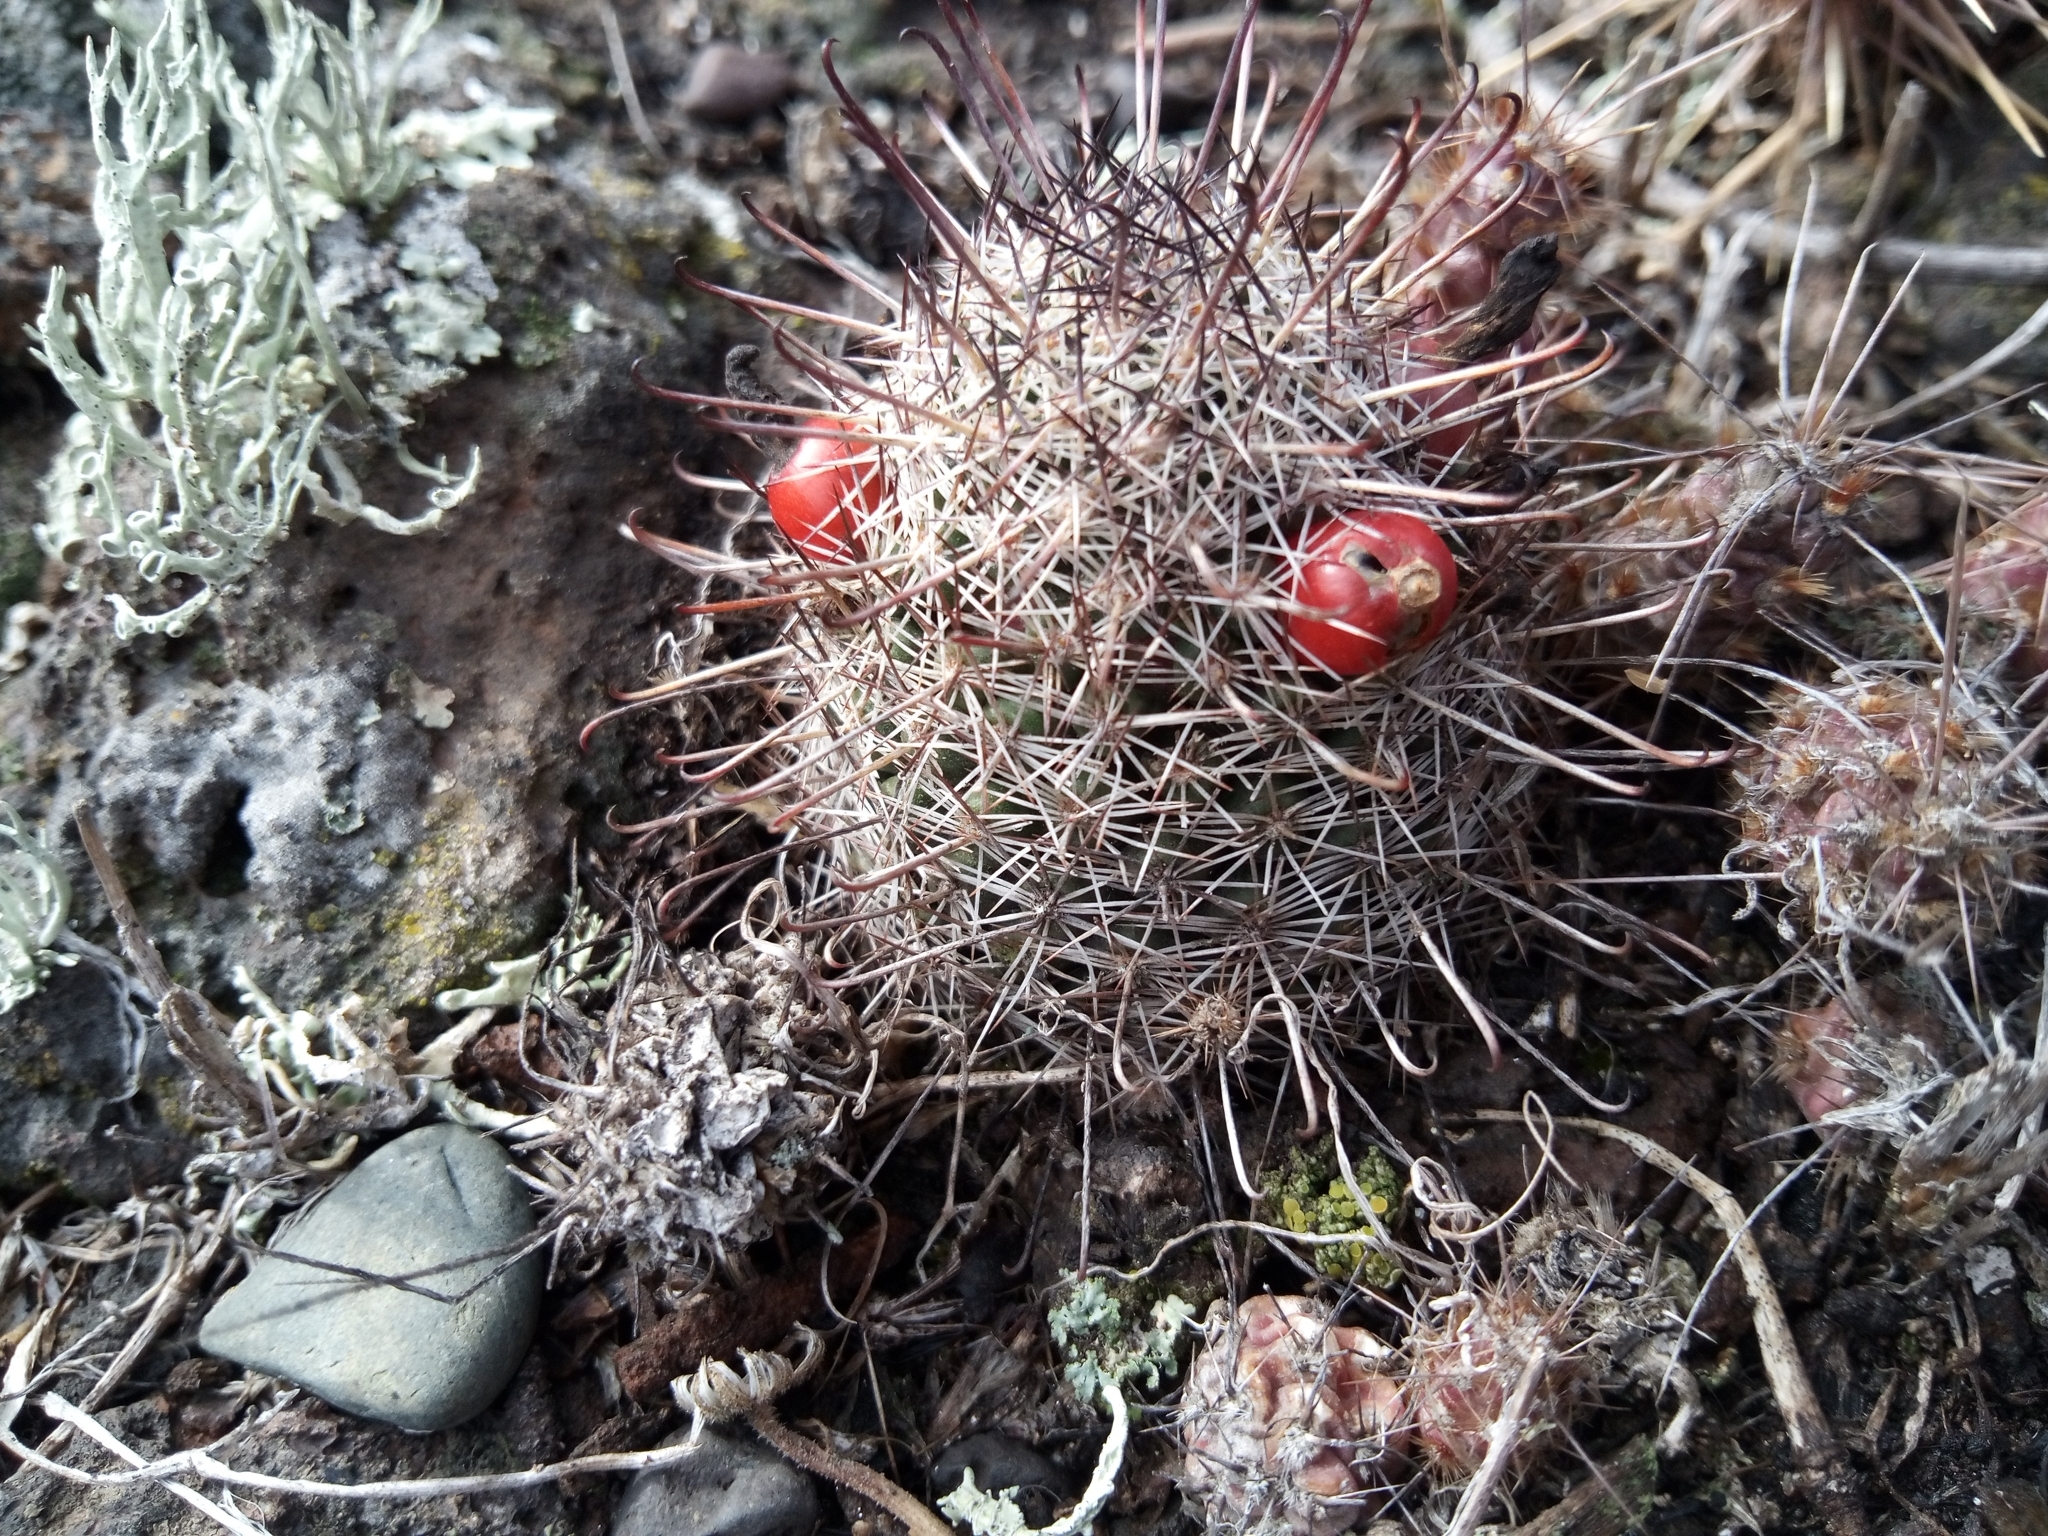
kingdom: Plantae
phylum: Tracheophyta
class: Magnoliopsida
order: Caryophyllales
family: Cactaceae
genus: Cochemiea
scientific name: Cochemiea hutchisoniana
